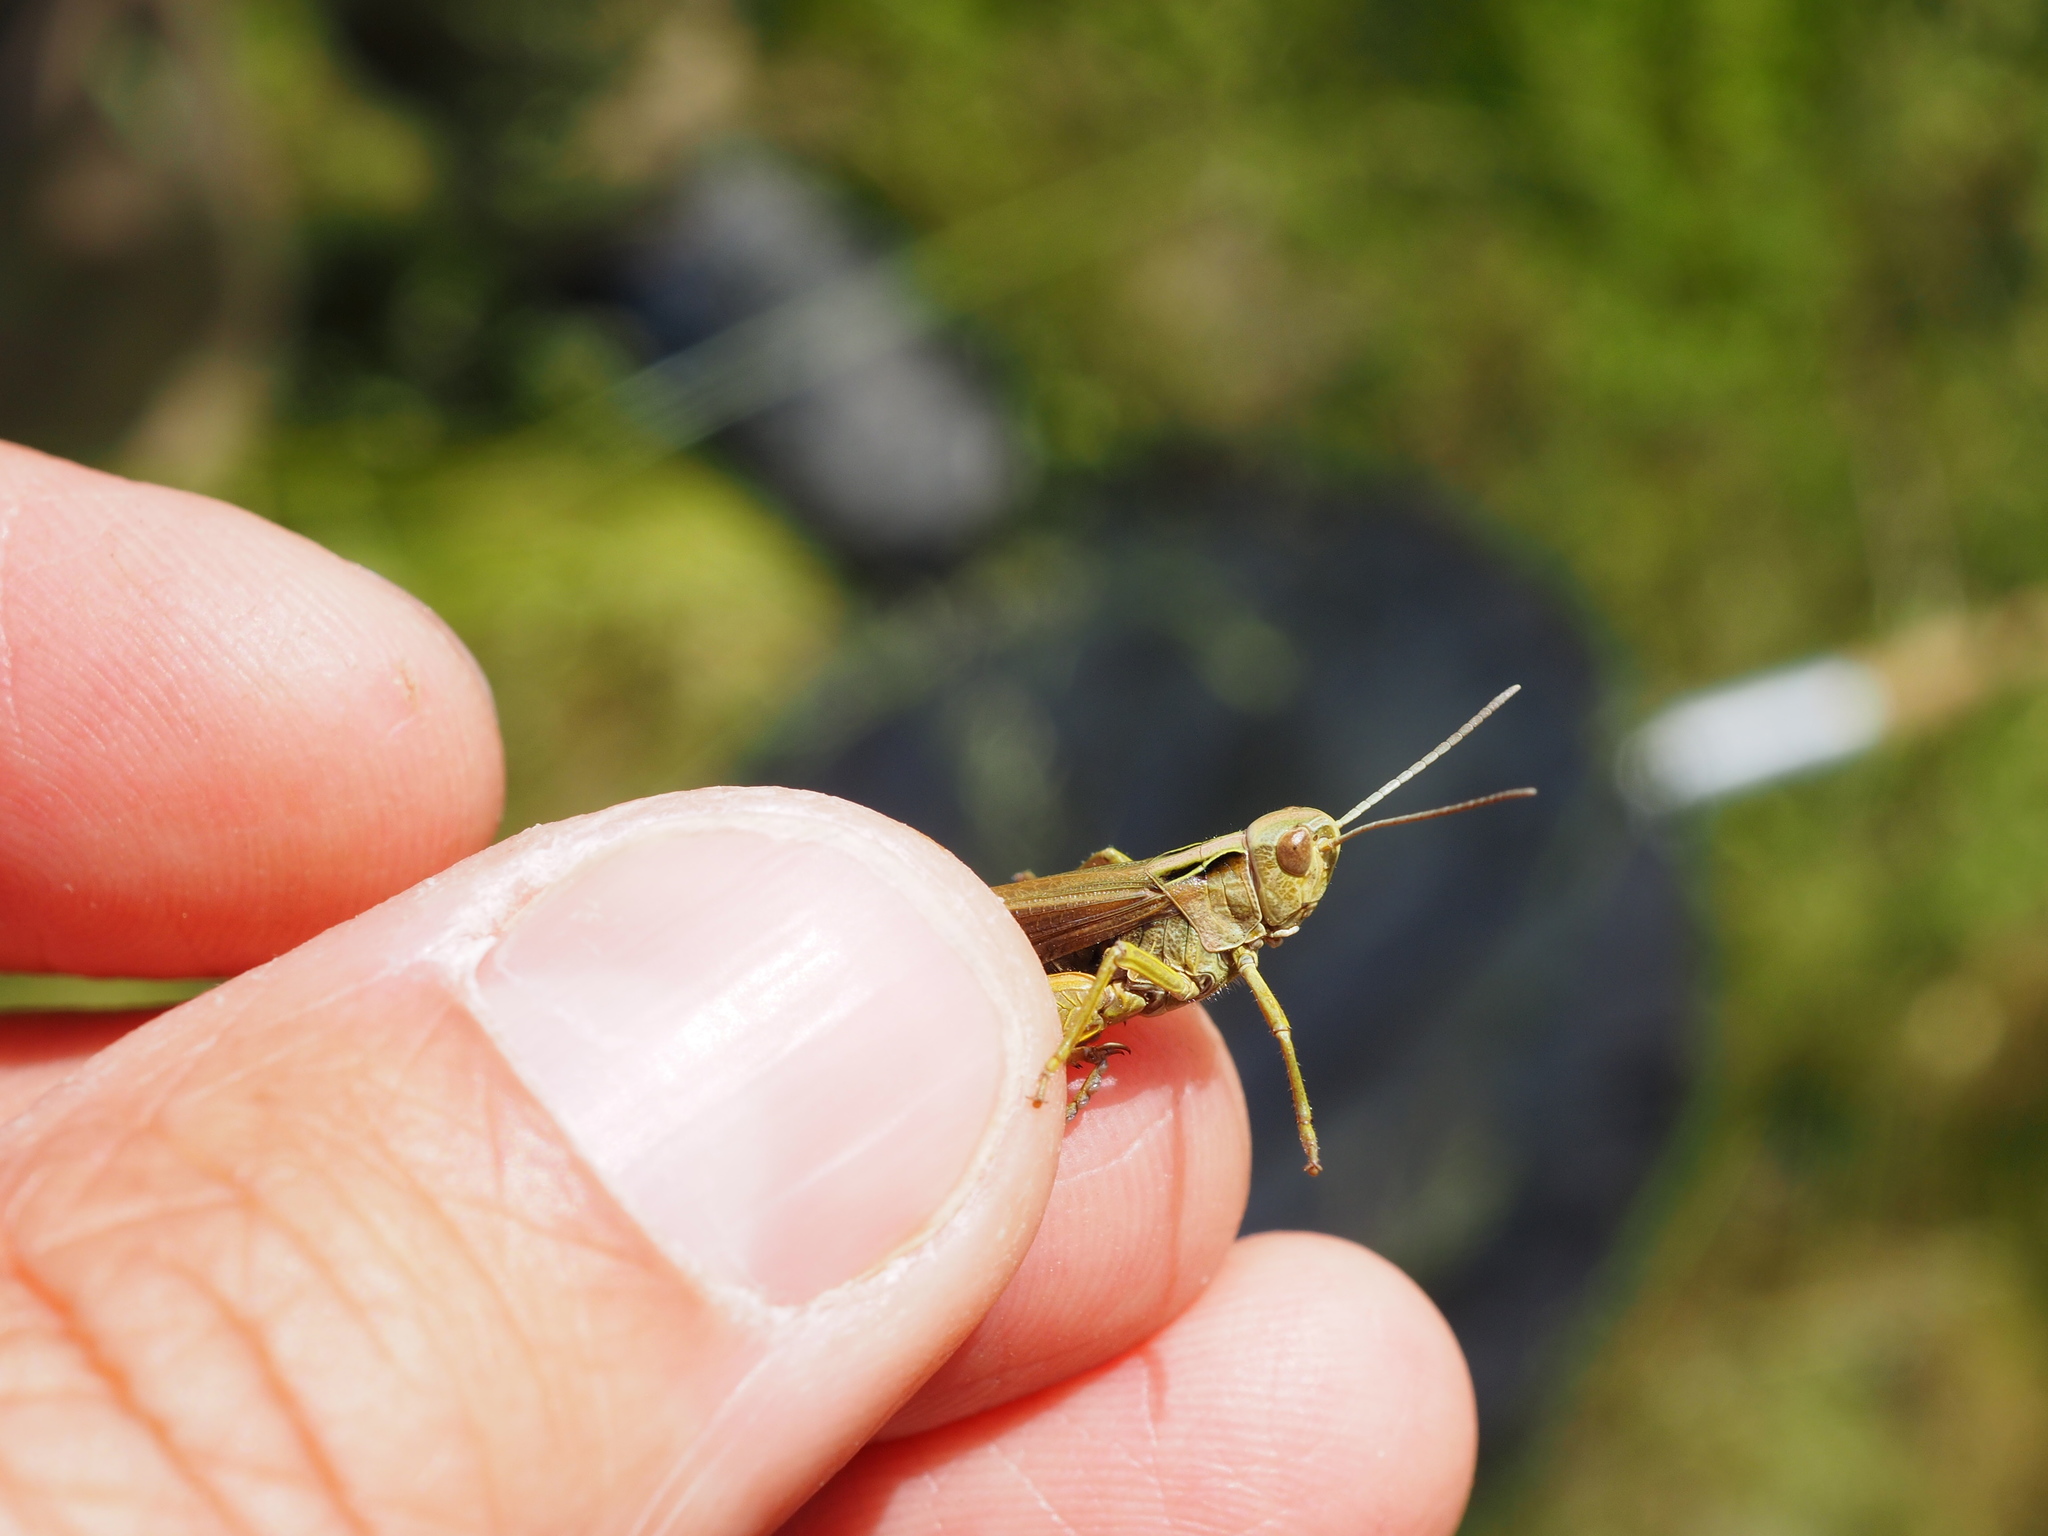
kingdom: Animalia
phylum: Arthropoda
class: Insecta
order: Orthoptera
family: Acrididae
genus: Omocestus
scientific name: Omocestus viridulus
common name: Common green grasshopper
